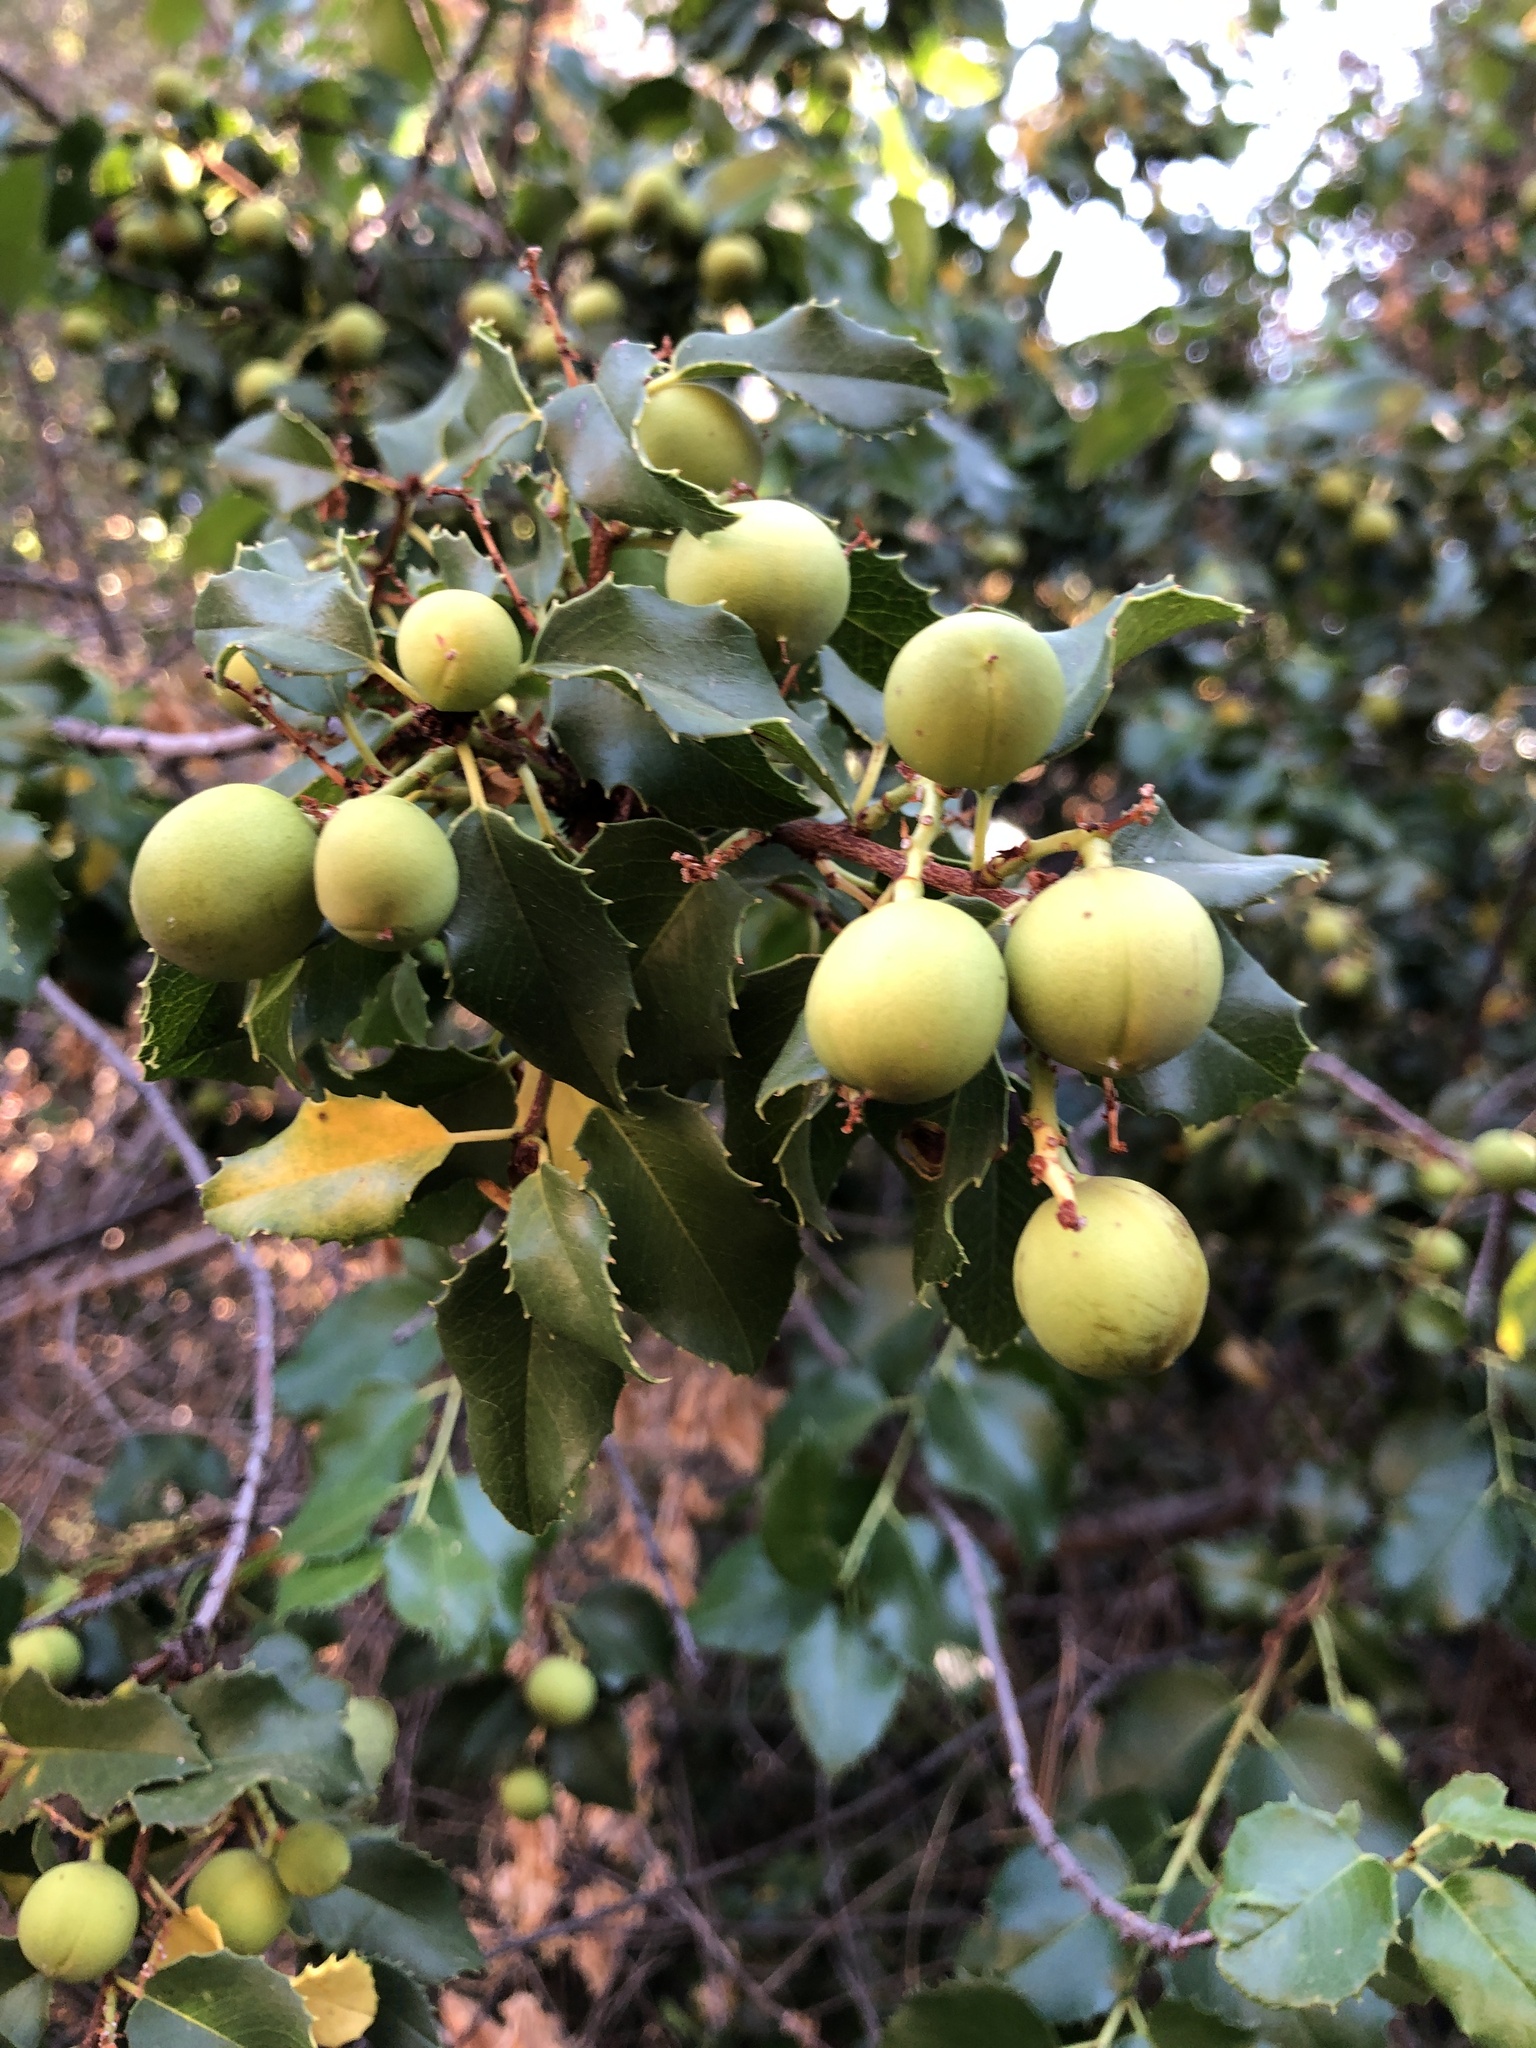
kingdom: Plantae
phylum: Tracheophyta
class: Magnoliopsida
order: Rosales
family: Rosaceae
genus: Prunus
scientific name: Prunus ilicifolia
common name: Hollyleaf cherry
